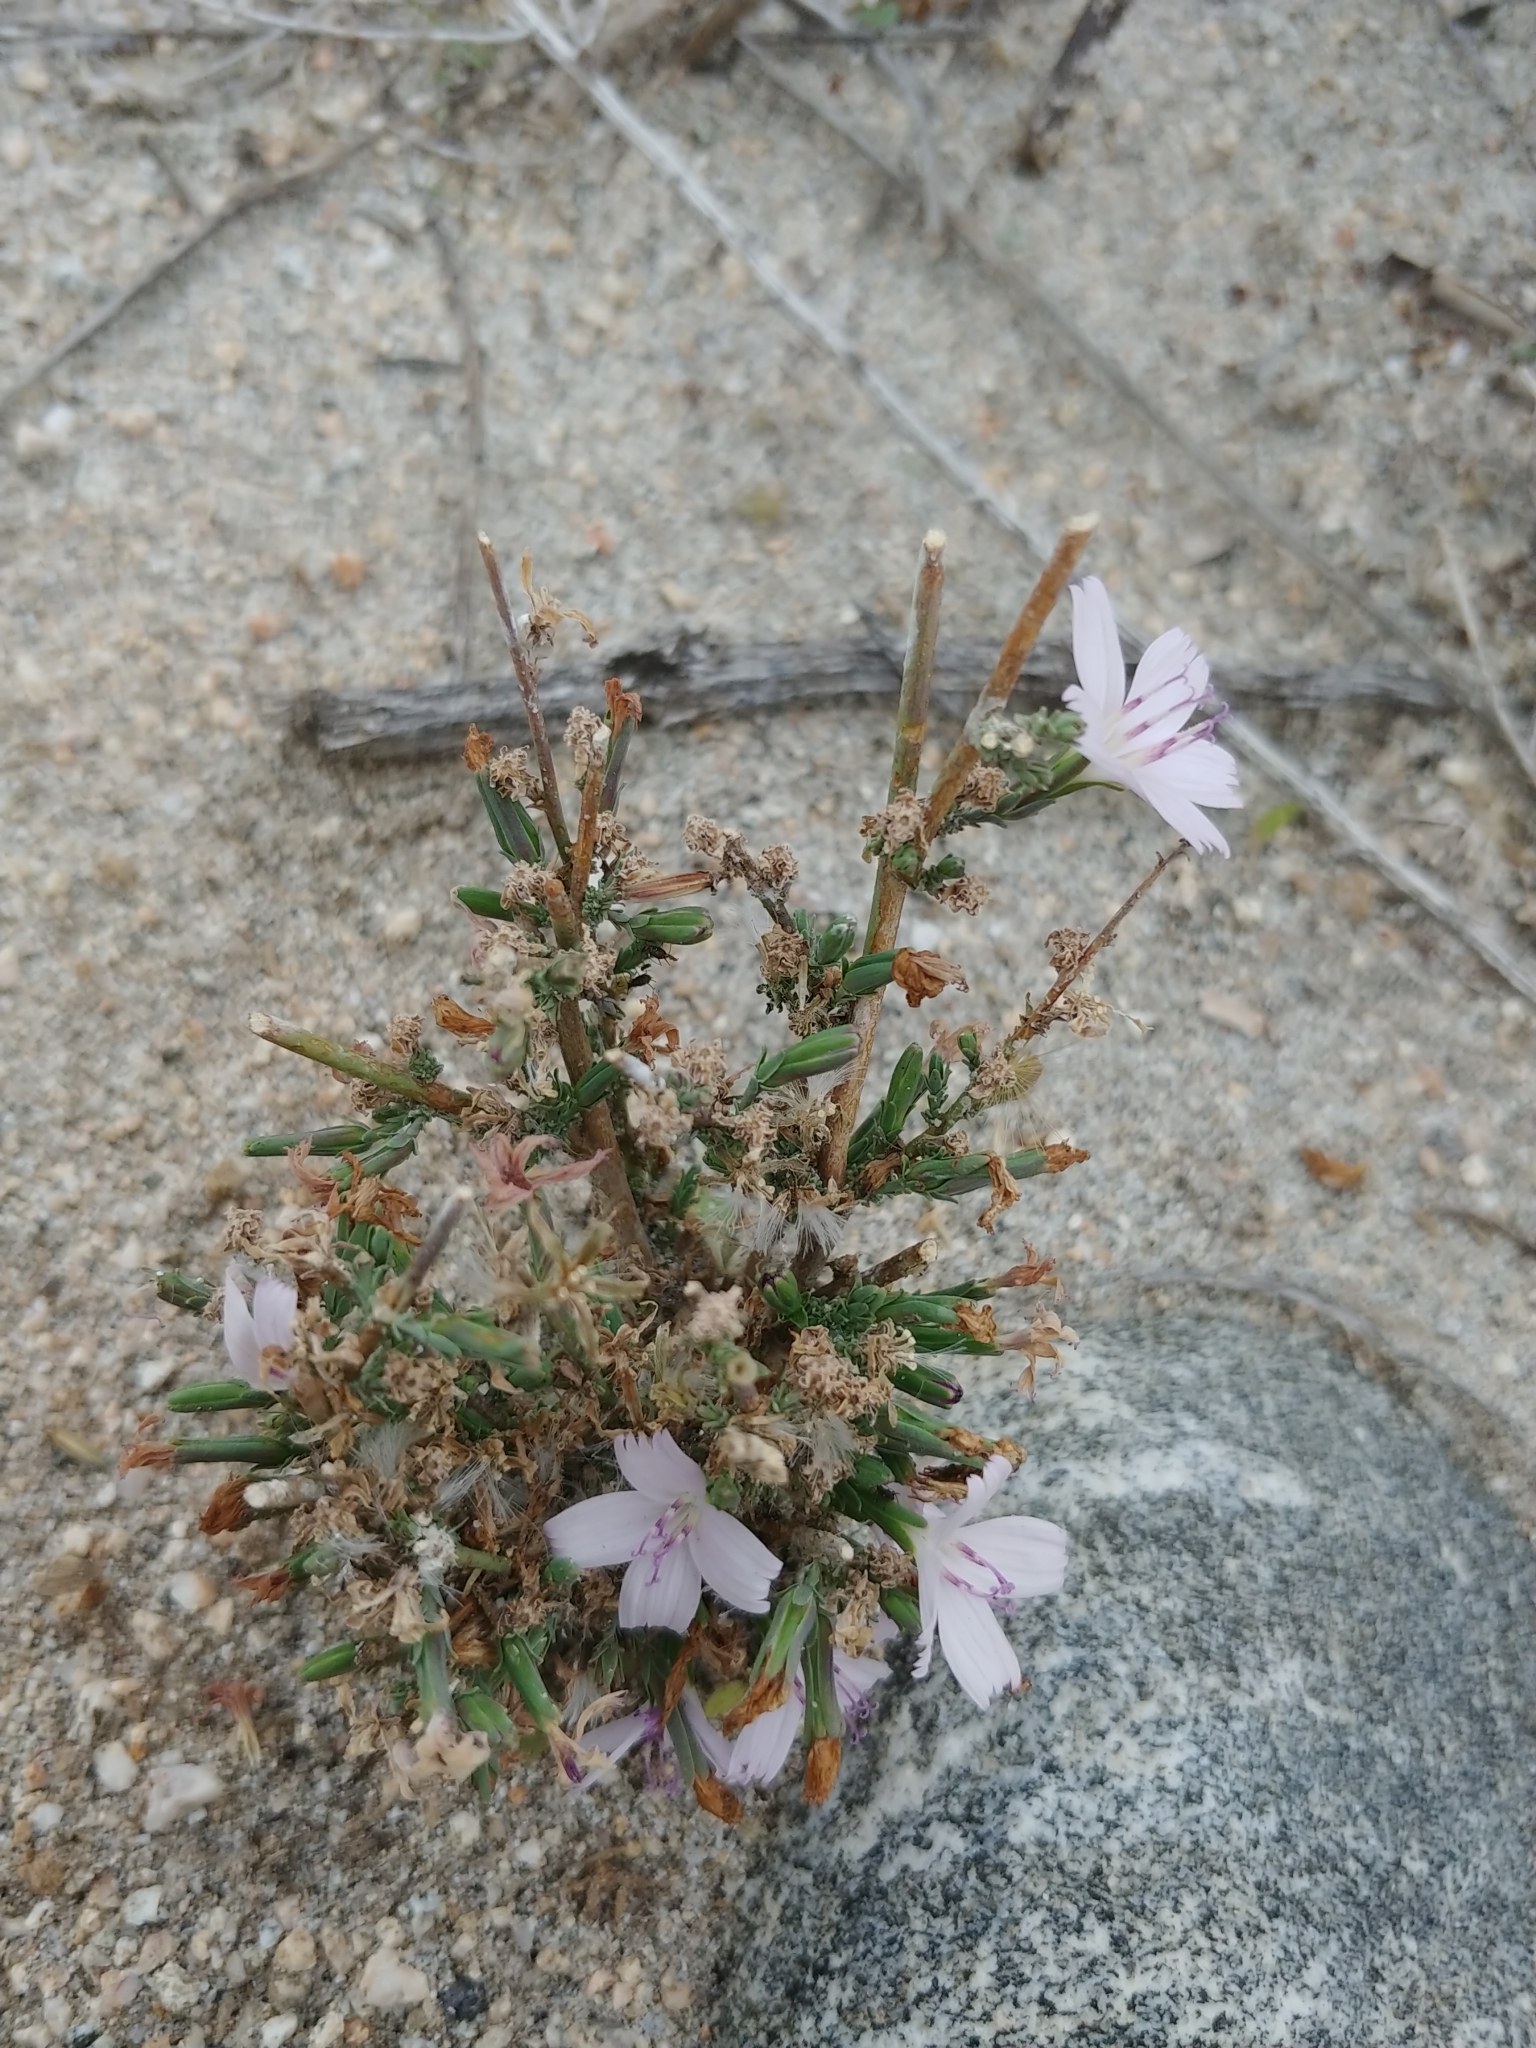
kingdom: Plantae
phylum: Tracheophyta
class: Magnoliopsida
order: Asterales
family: Asteraceae
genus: Stephanomeria
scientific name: Stephanomeria exigua
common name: Small wirelettuce
